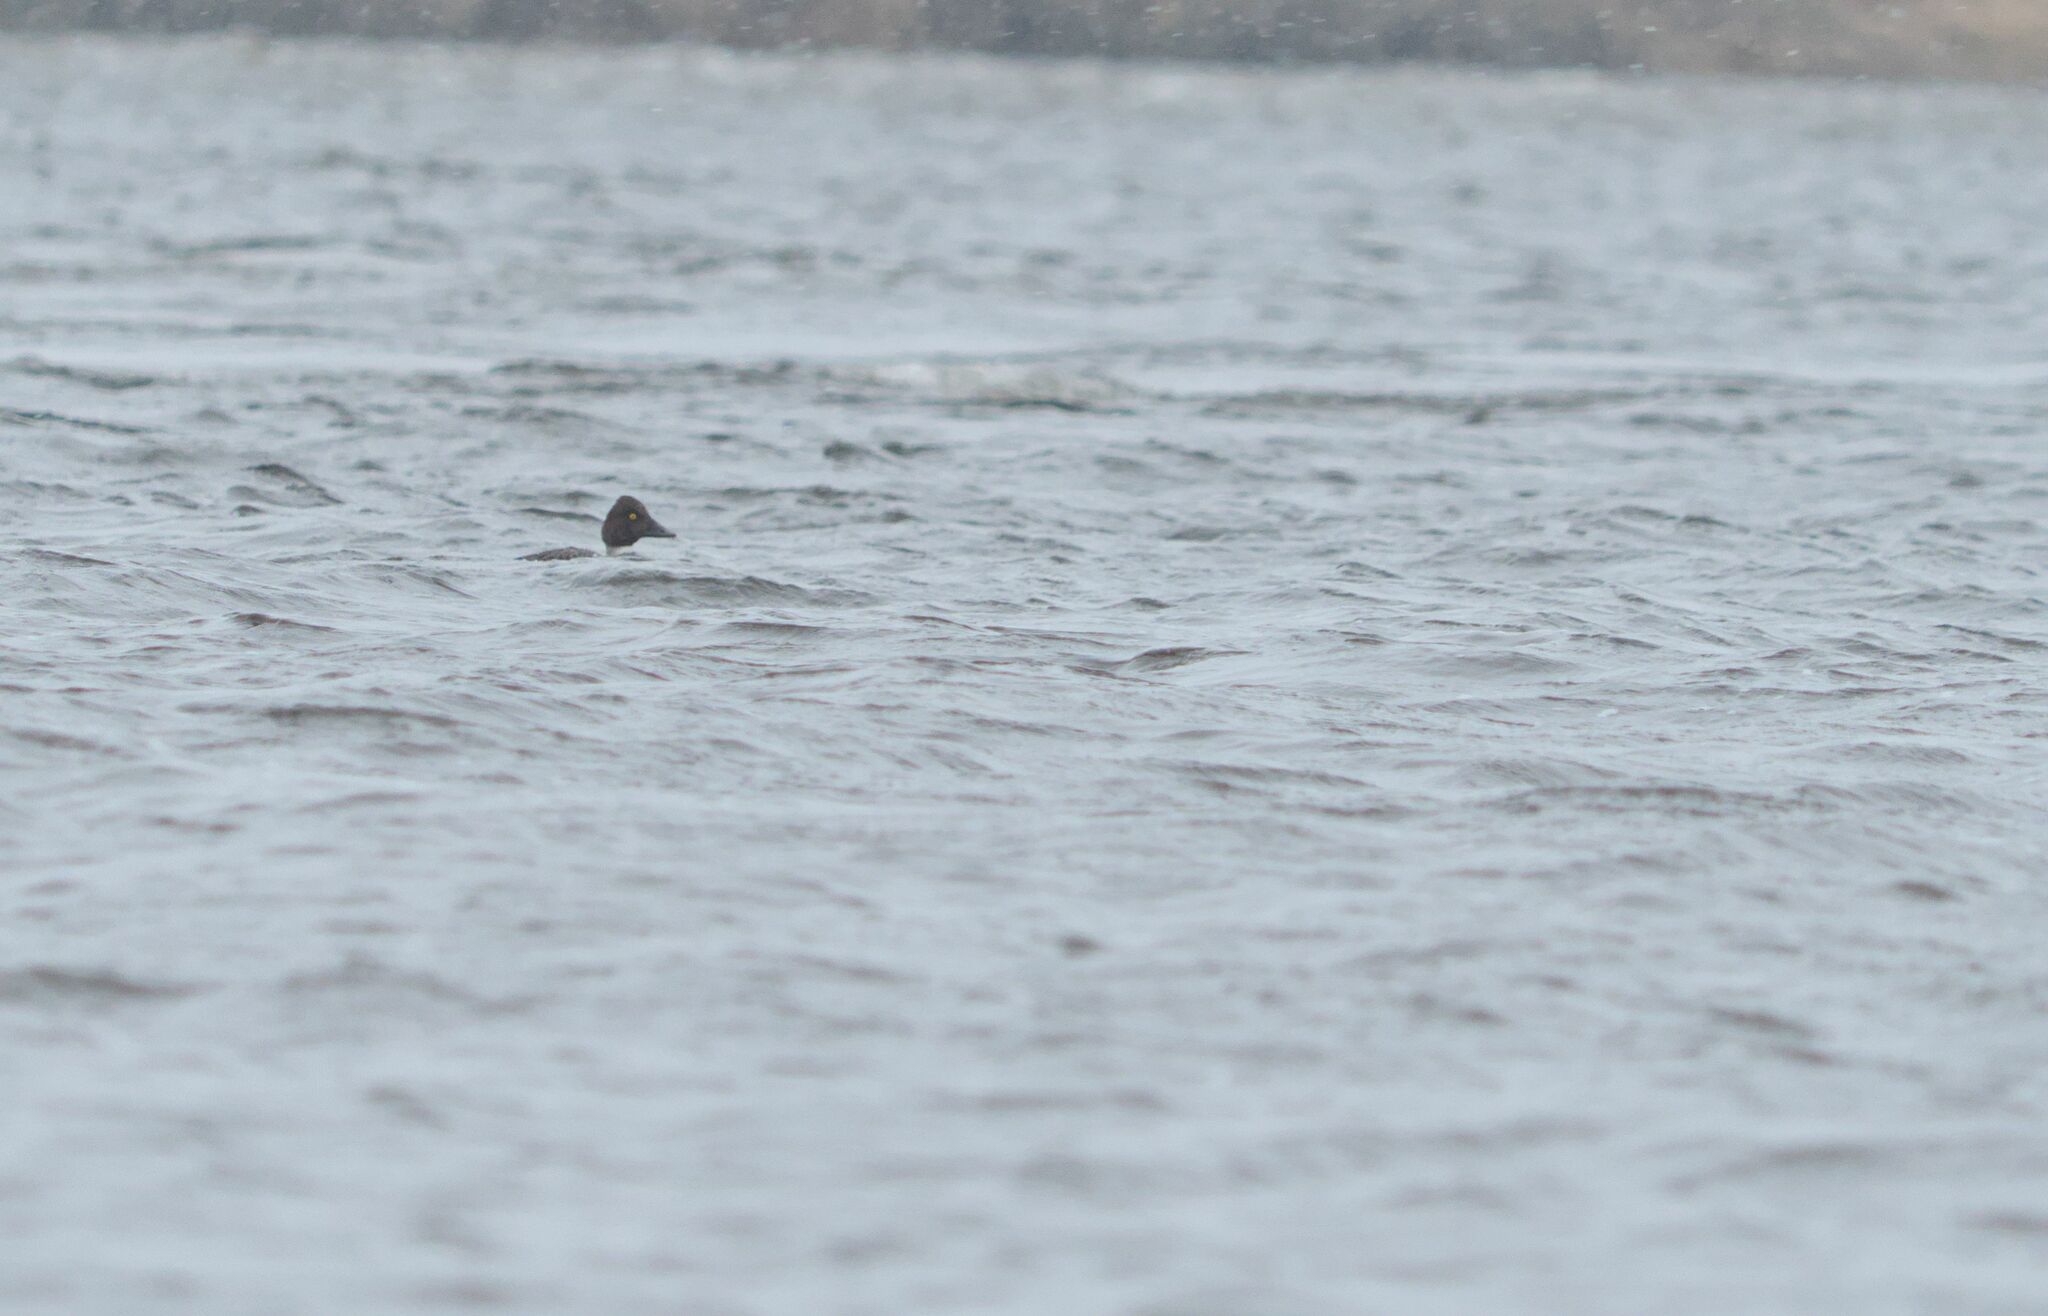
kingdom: Animalia
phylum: Chordata
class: Aves
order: Anseriformes
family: Anatidae
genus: Bucephala
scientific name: Bucephala clangula
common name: Common goldeneye
